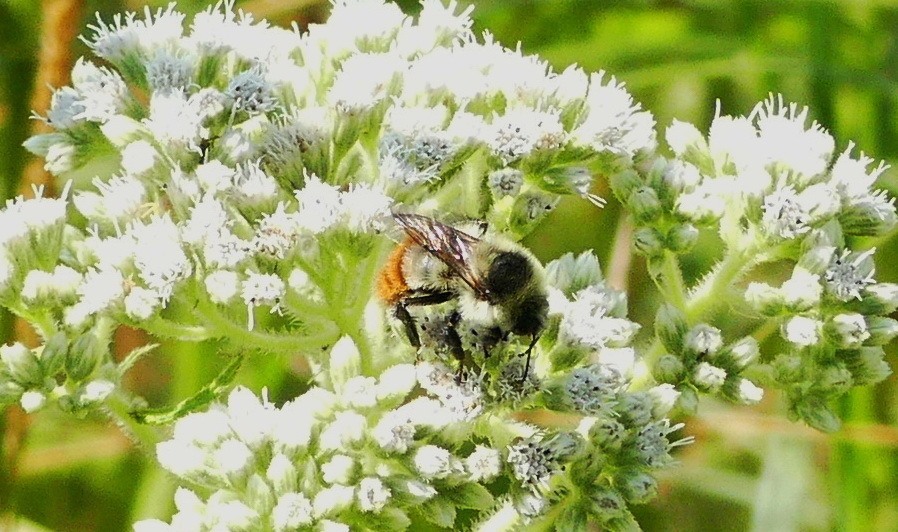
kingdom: Plantae
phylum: Tracheophyta
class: Magnoliopsida
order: Asterales
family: Asteraceae
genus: Eupatorium
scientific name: Eupatorium perfoliatum
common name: Boneset
